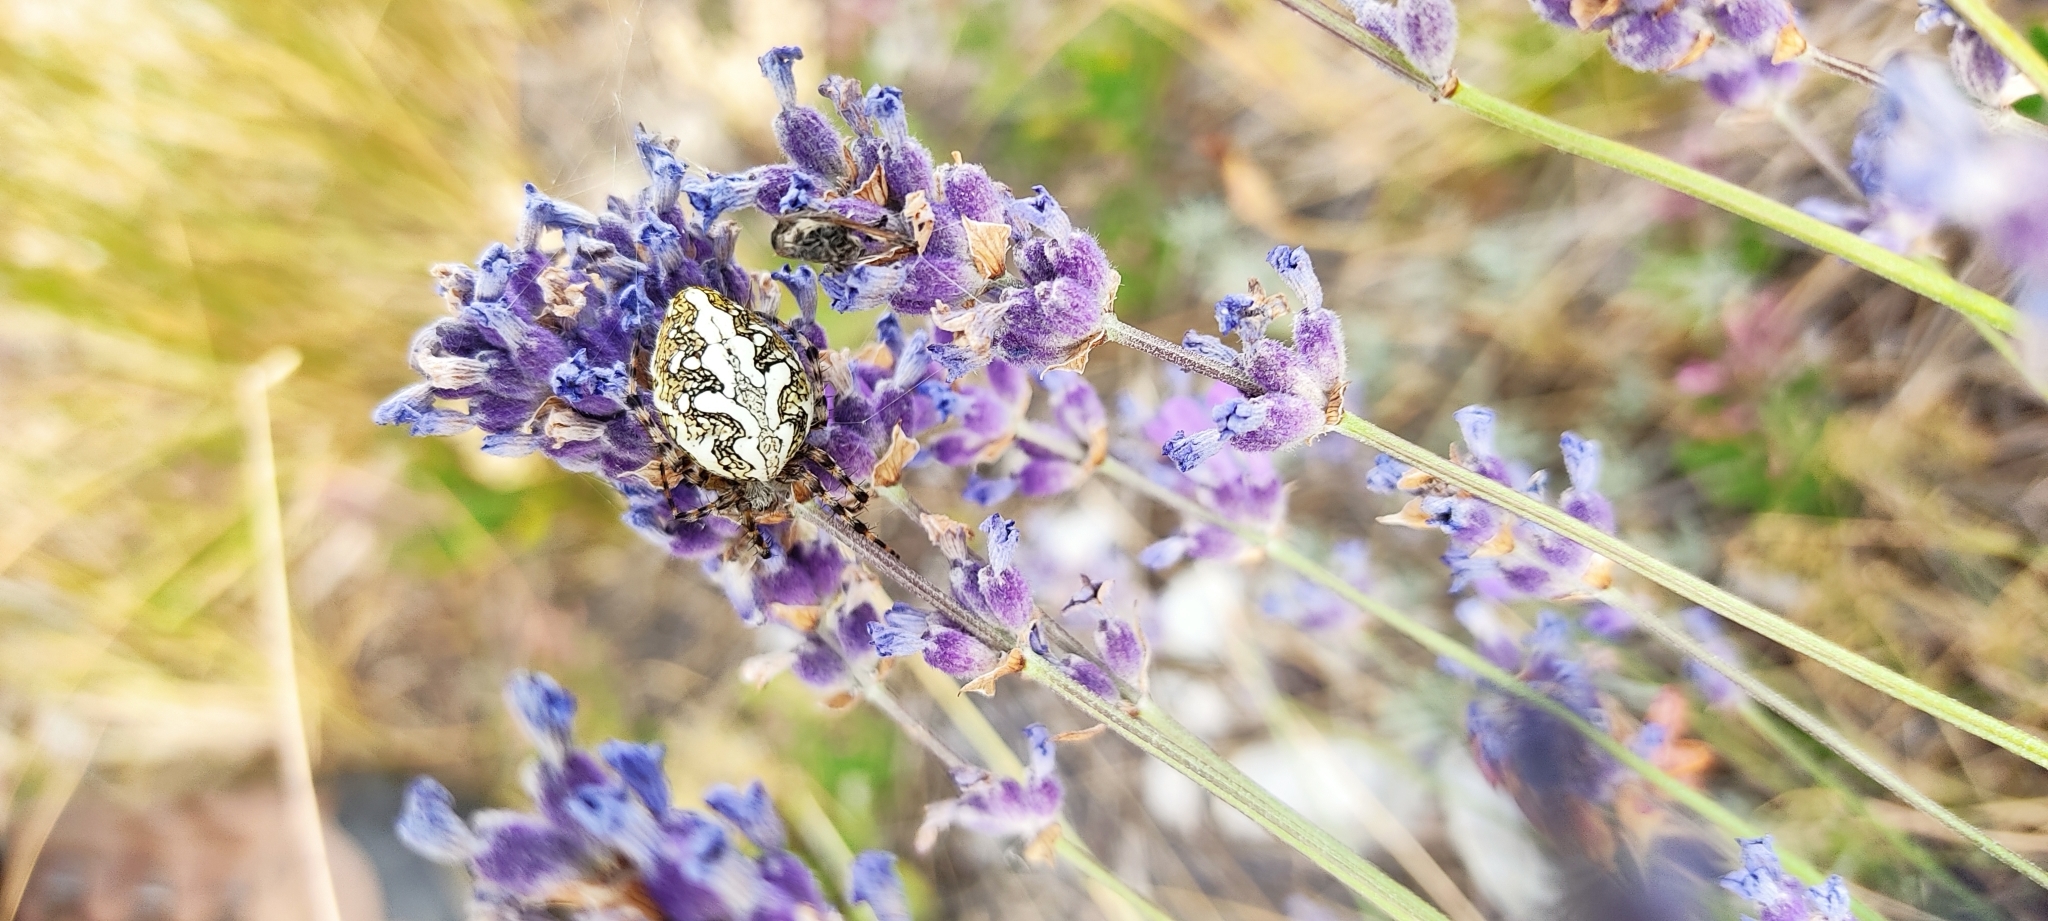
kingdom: Animalia
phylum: Arthropoda
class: Arachnida
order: Araneae
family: Araneidae
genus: Aculepeira
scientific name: Aculepeira ceropegia
